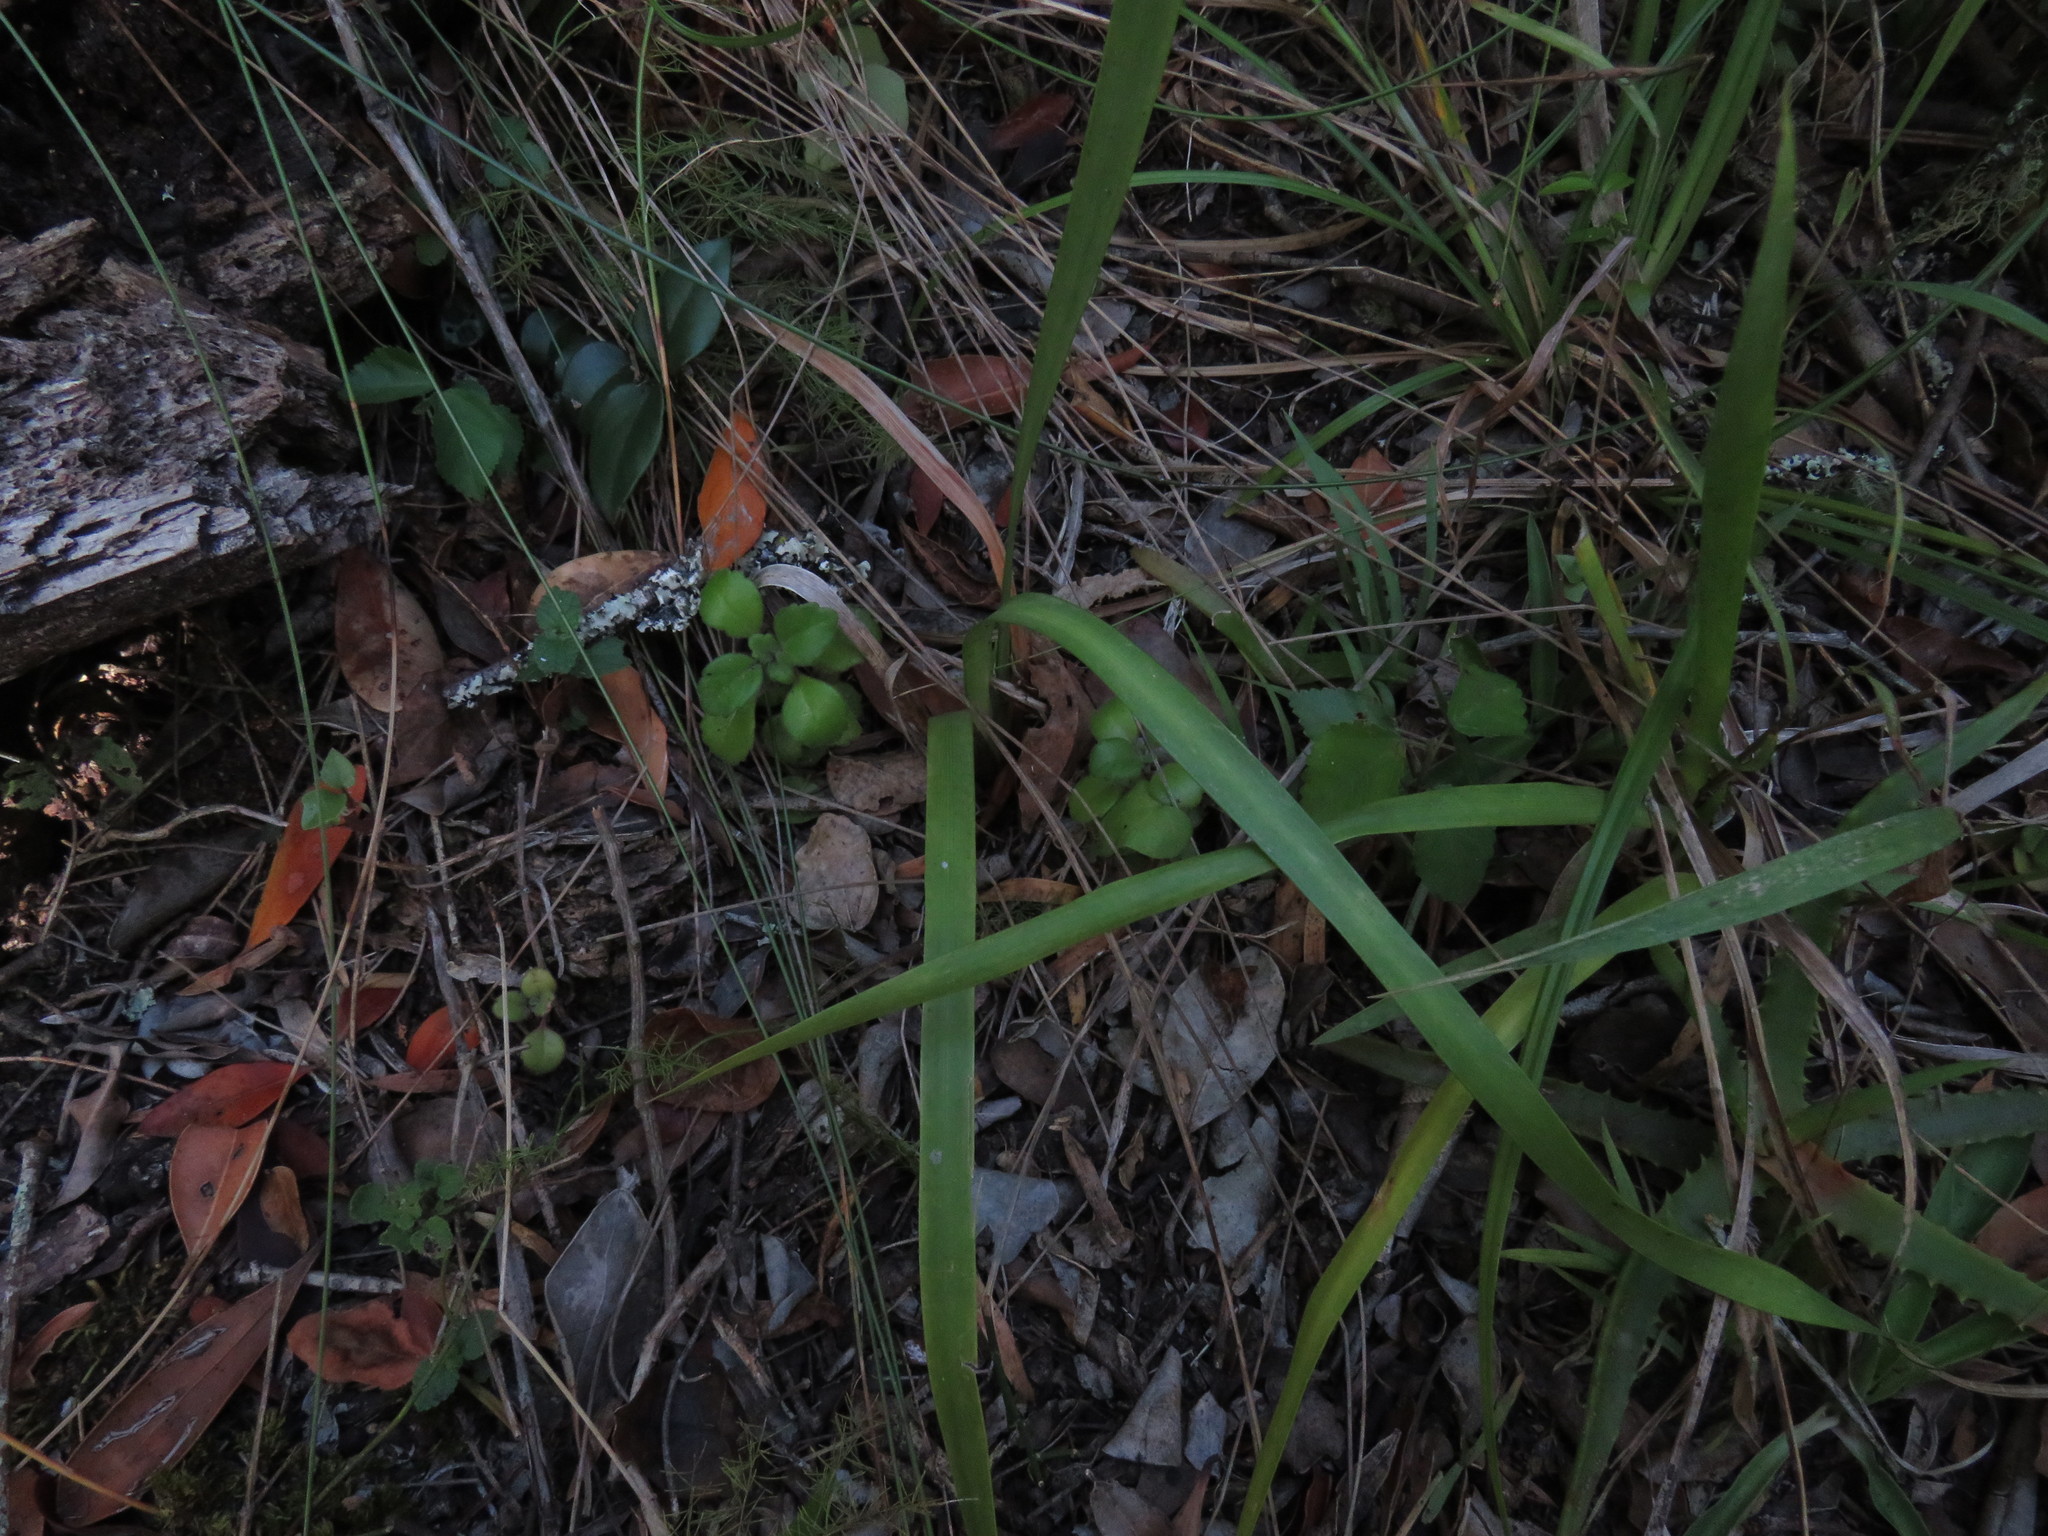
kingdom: Plantae
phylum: Tracheophyta
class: Magnoliopsida
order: Lamiales
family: Lamiaceae
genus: Plectranthus
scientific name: Plectranthus verticillatus
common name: Whorled plectranthus
